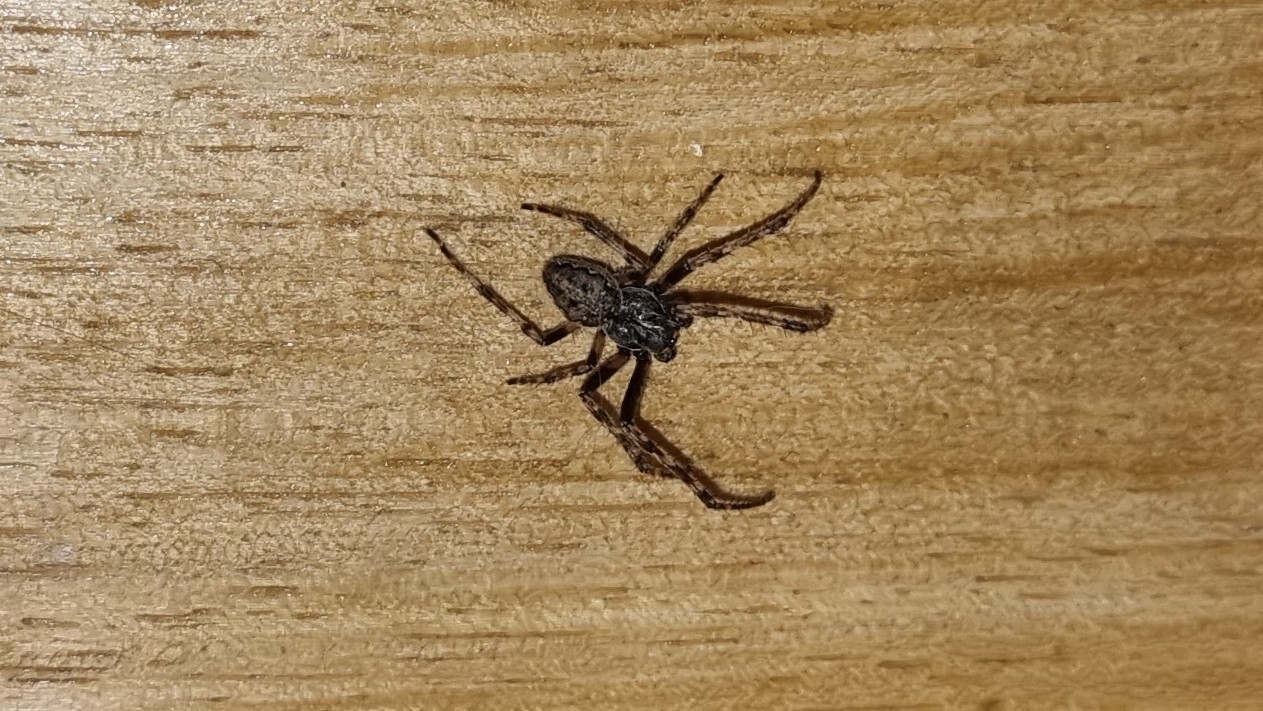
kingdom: Animalia
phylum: Arthropoda
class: Arachnida
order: Araneae
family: Araneidae
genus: Nuctenea
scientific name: Nuctenea umbratica
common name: Toad spider
